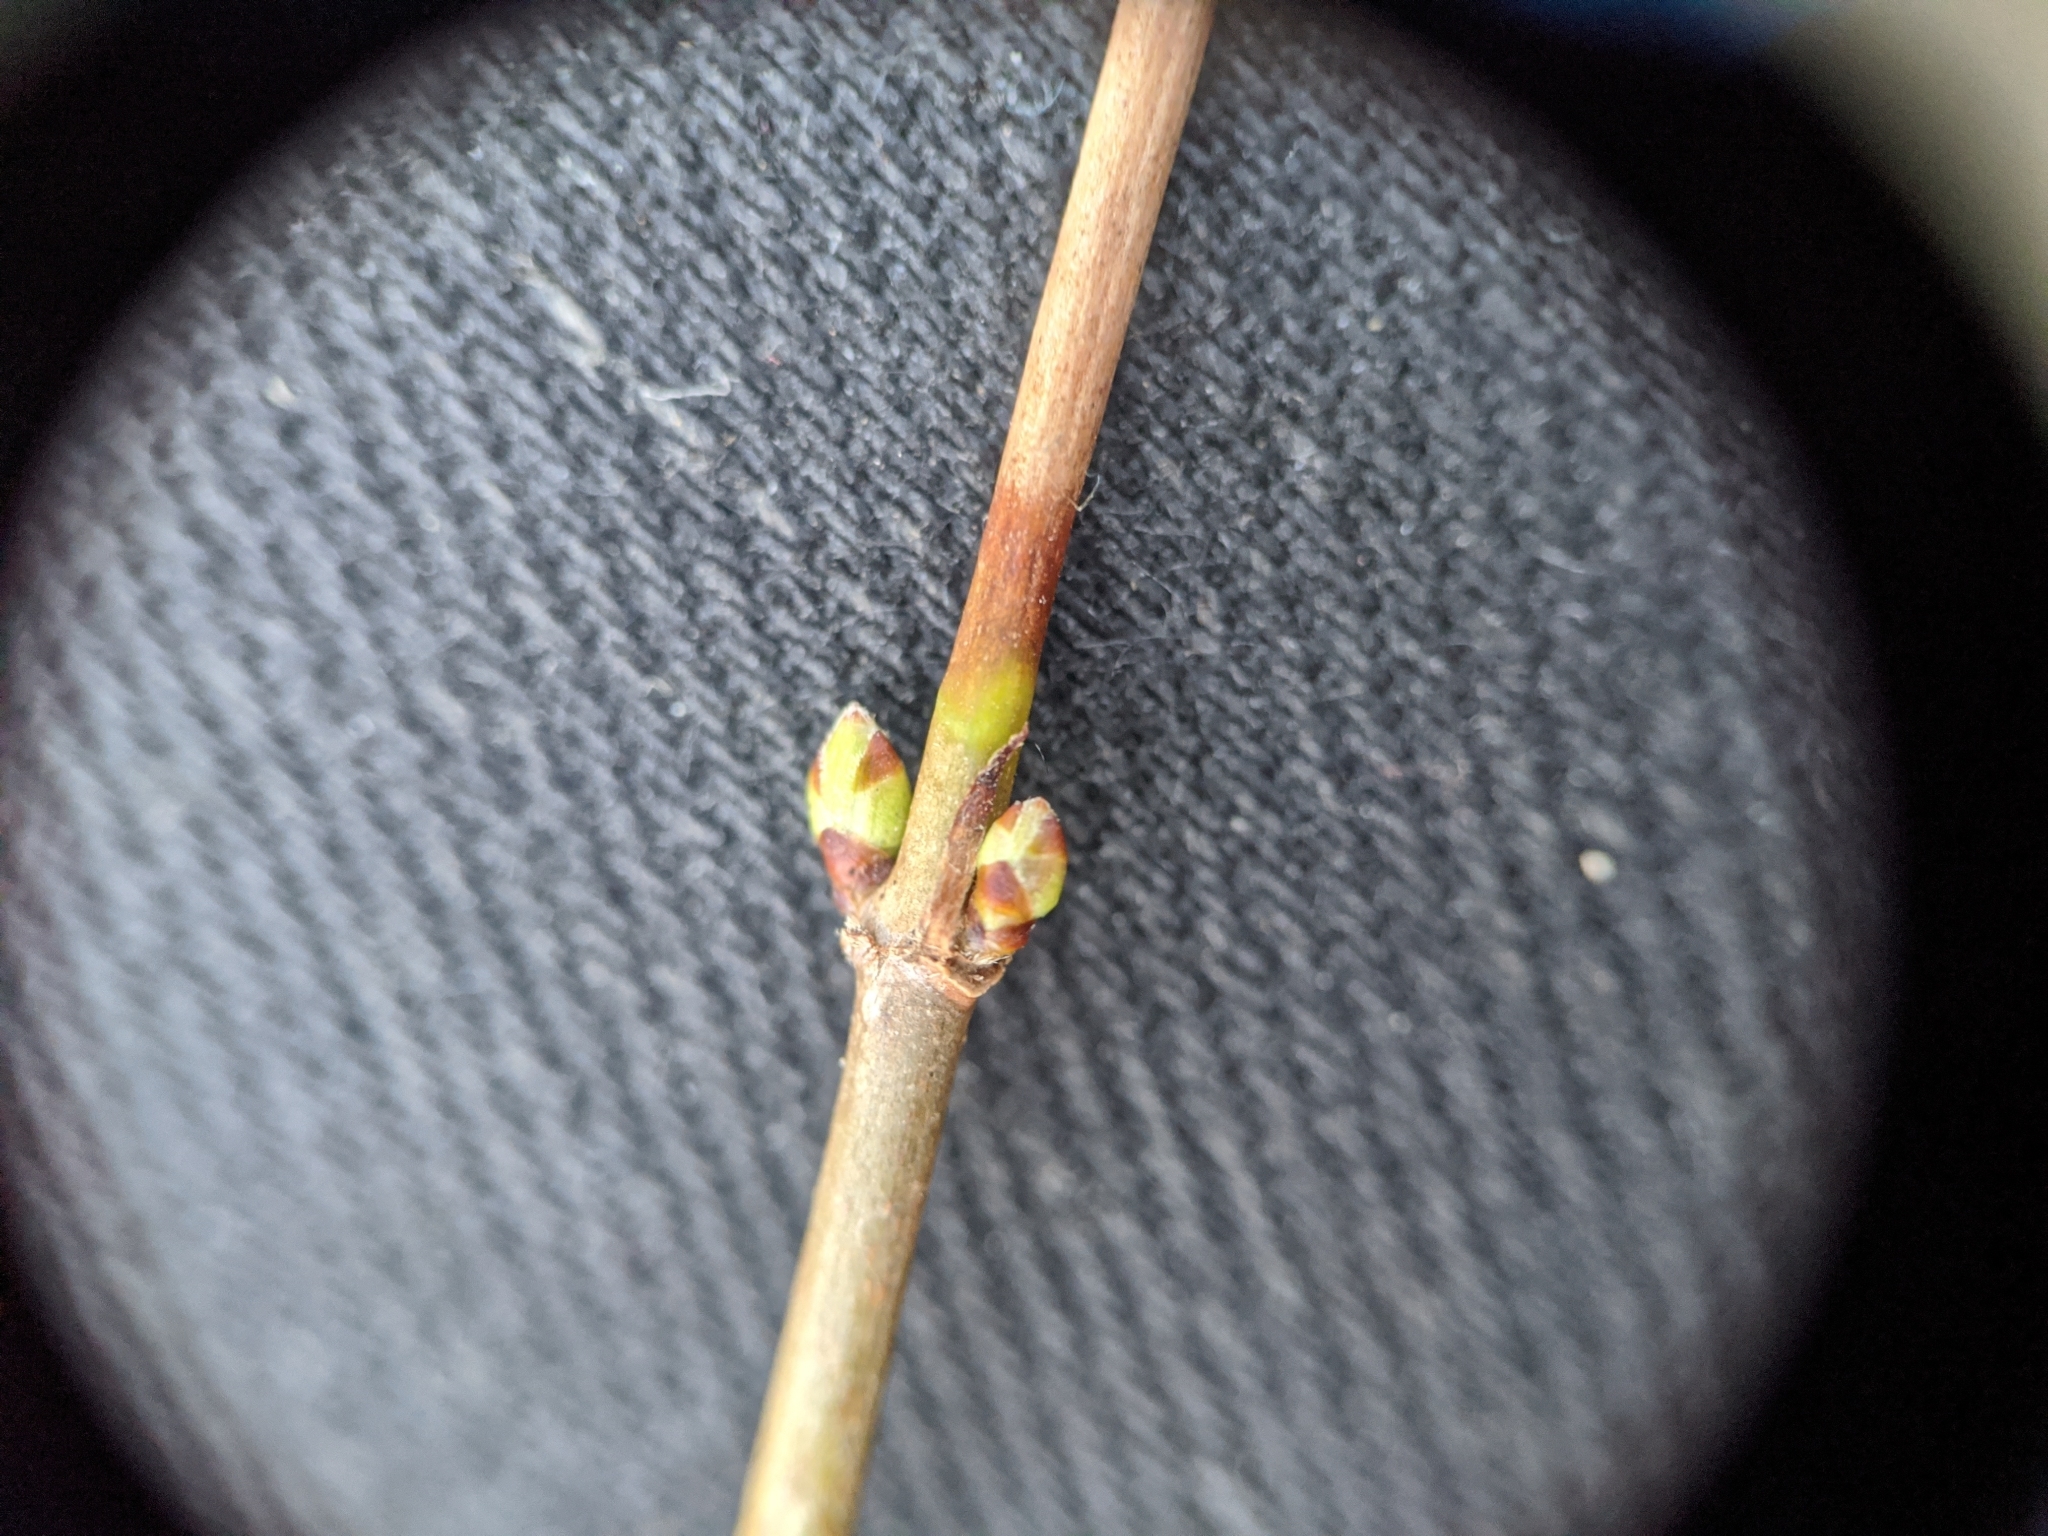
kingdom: Plantae
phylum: Tracheophyta
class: Magnoliopsida
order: Rosales
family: Rosaceae
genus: Rhodotypos
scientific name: Rhodotypos scandens
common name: Jetbead
